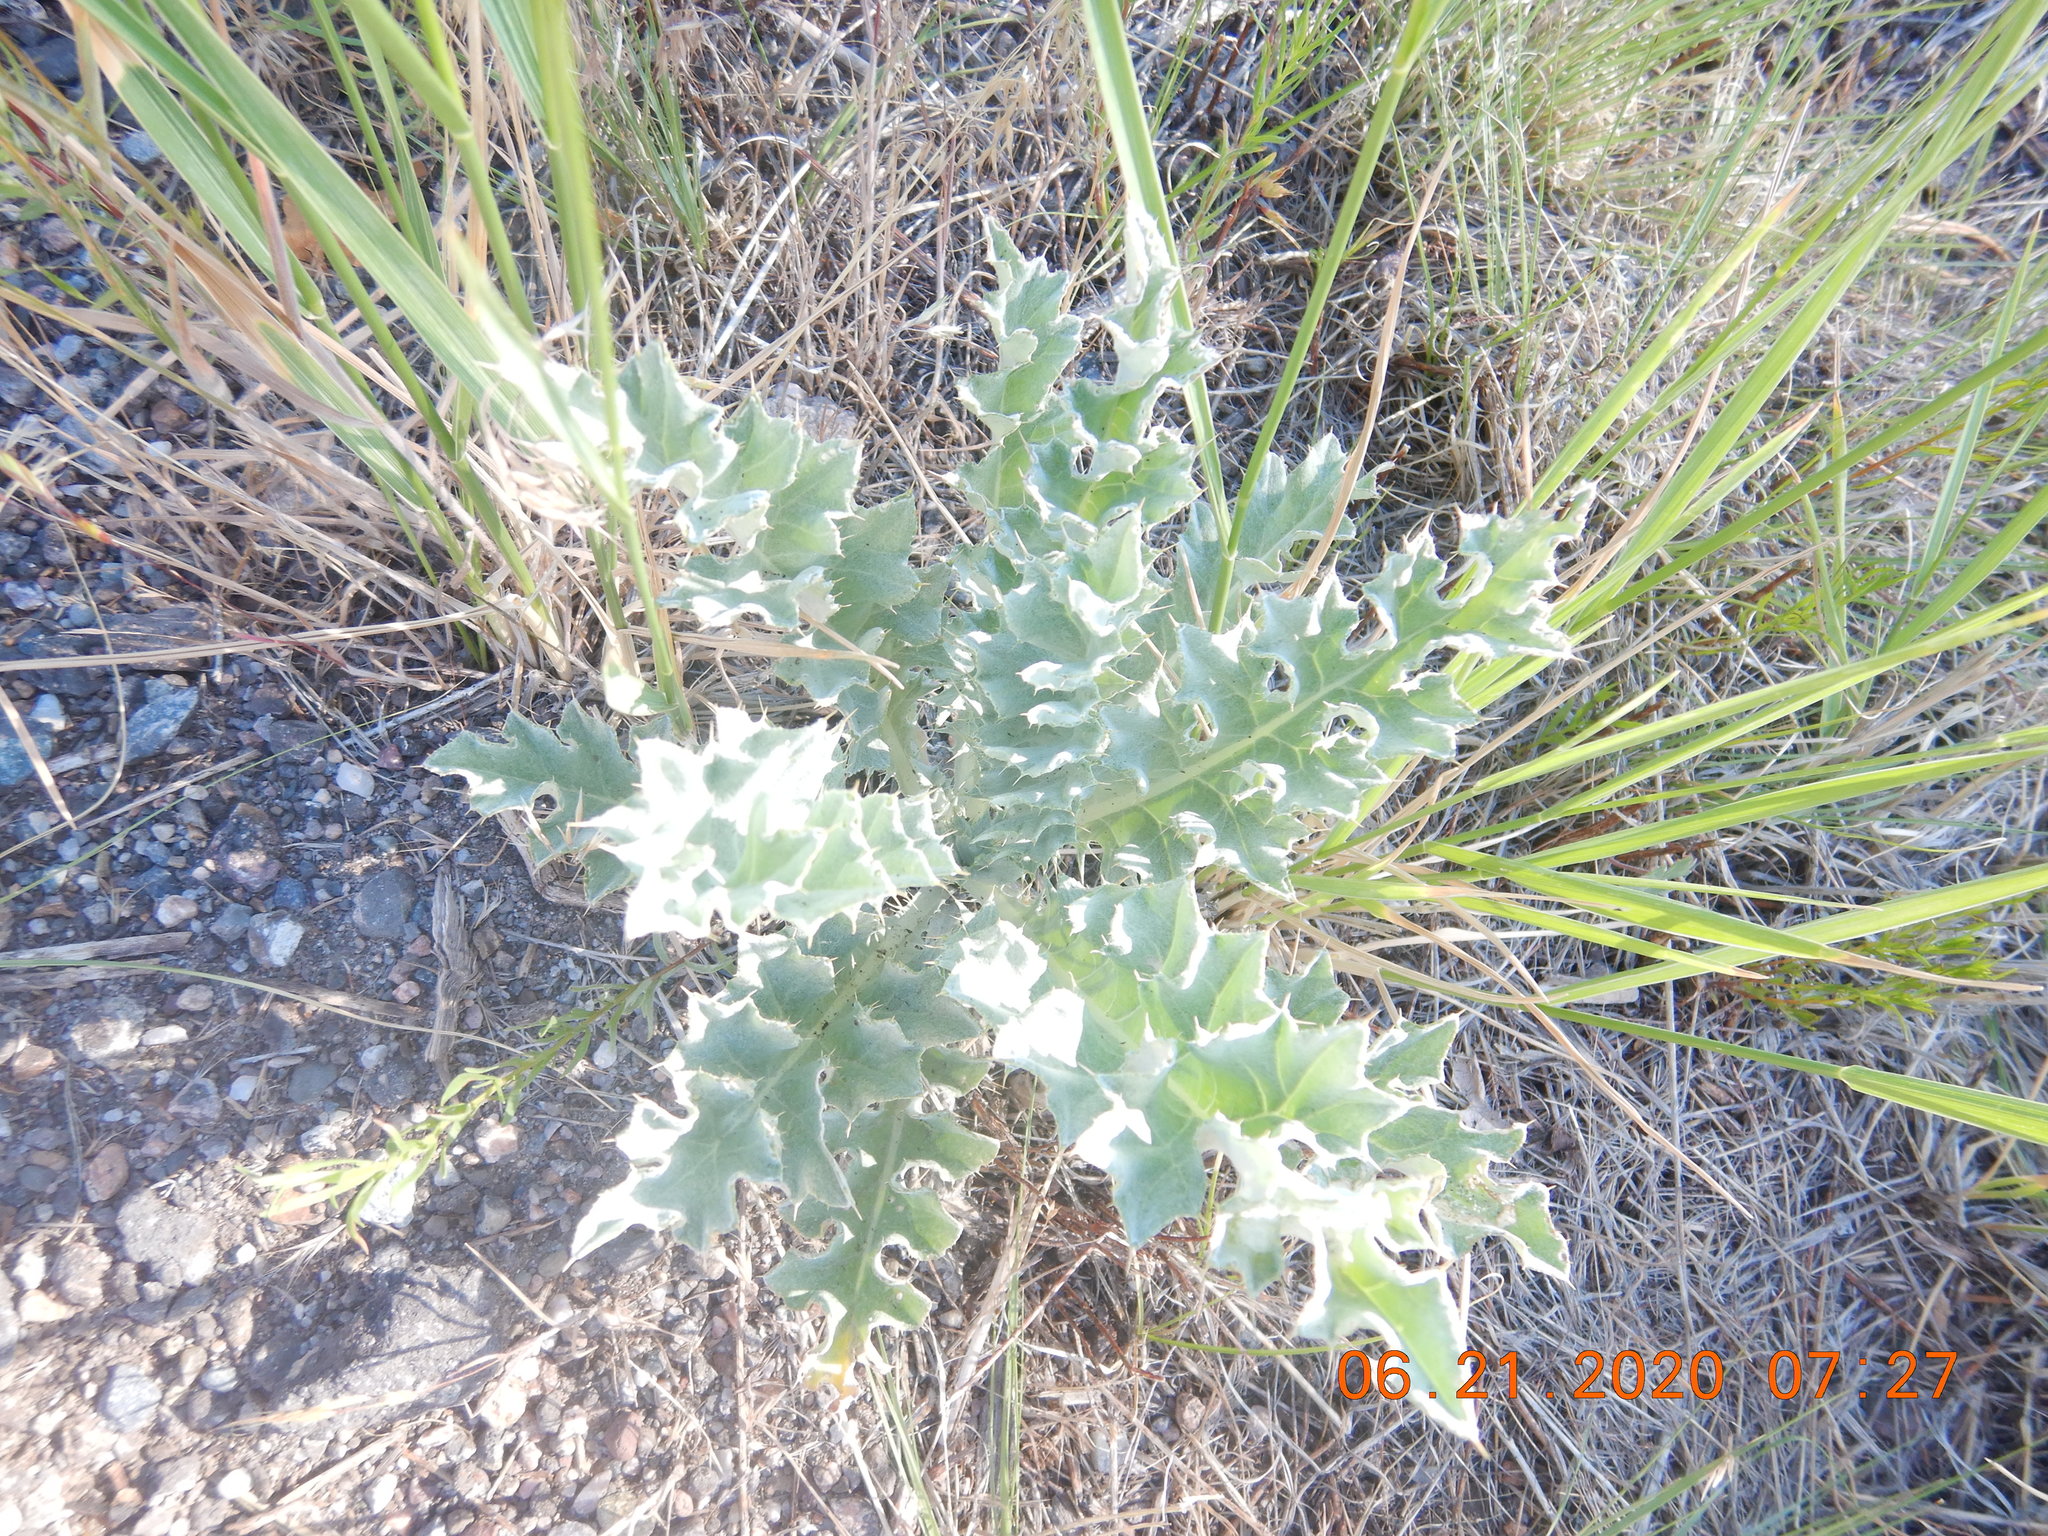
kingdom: Plantae
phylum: Tracheophyta
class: Magnoliopsida
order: Asterales
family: Asteraceae
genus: Cirsium
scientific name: Cirsium undulatum
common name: Pasture thistle
